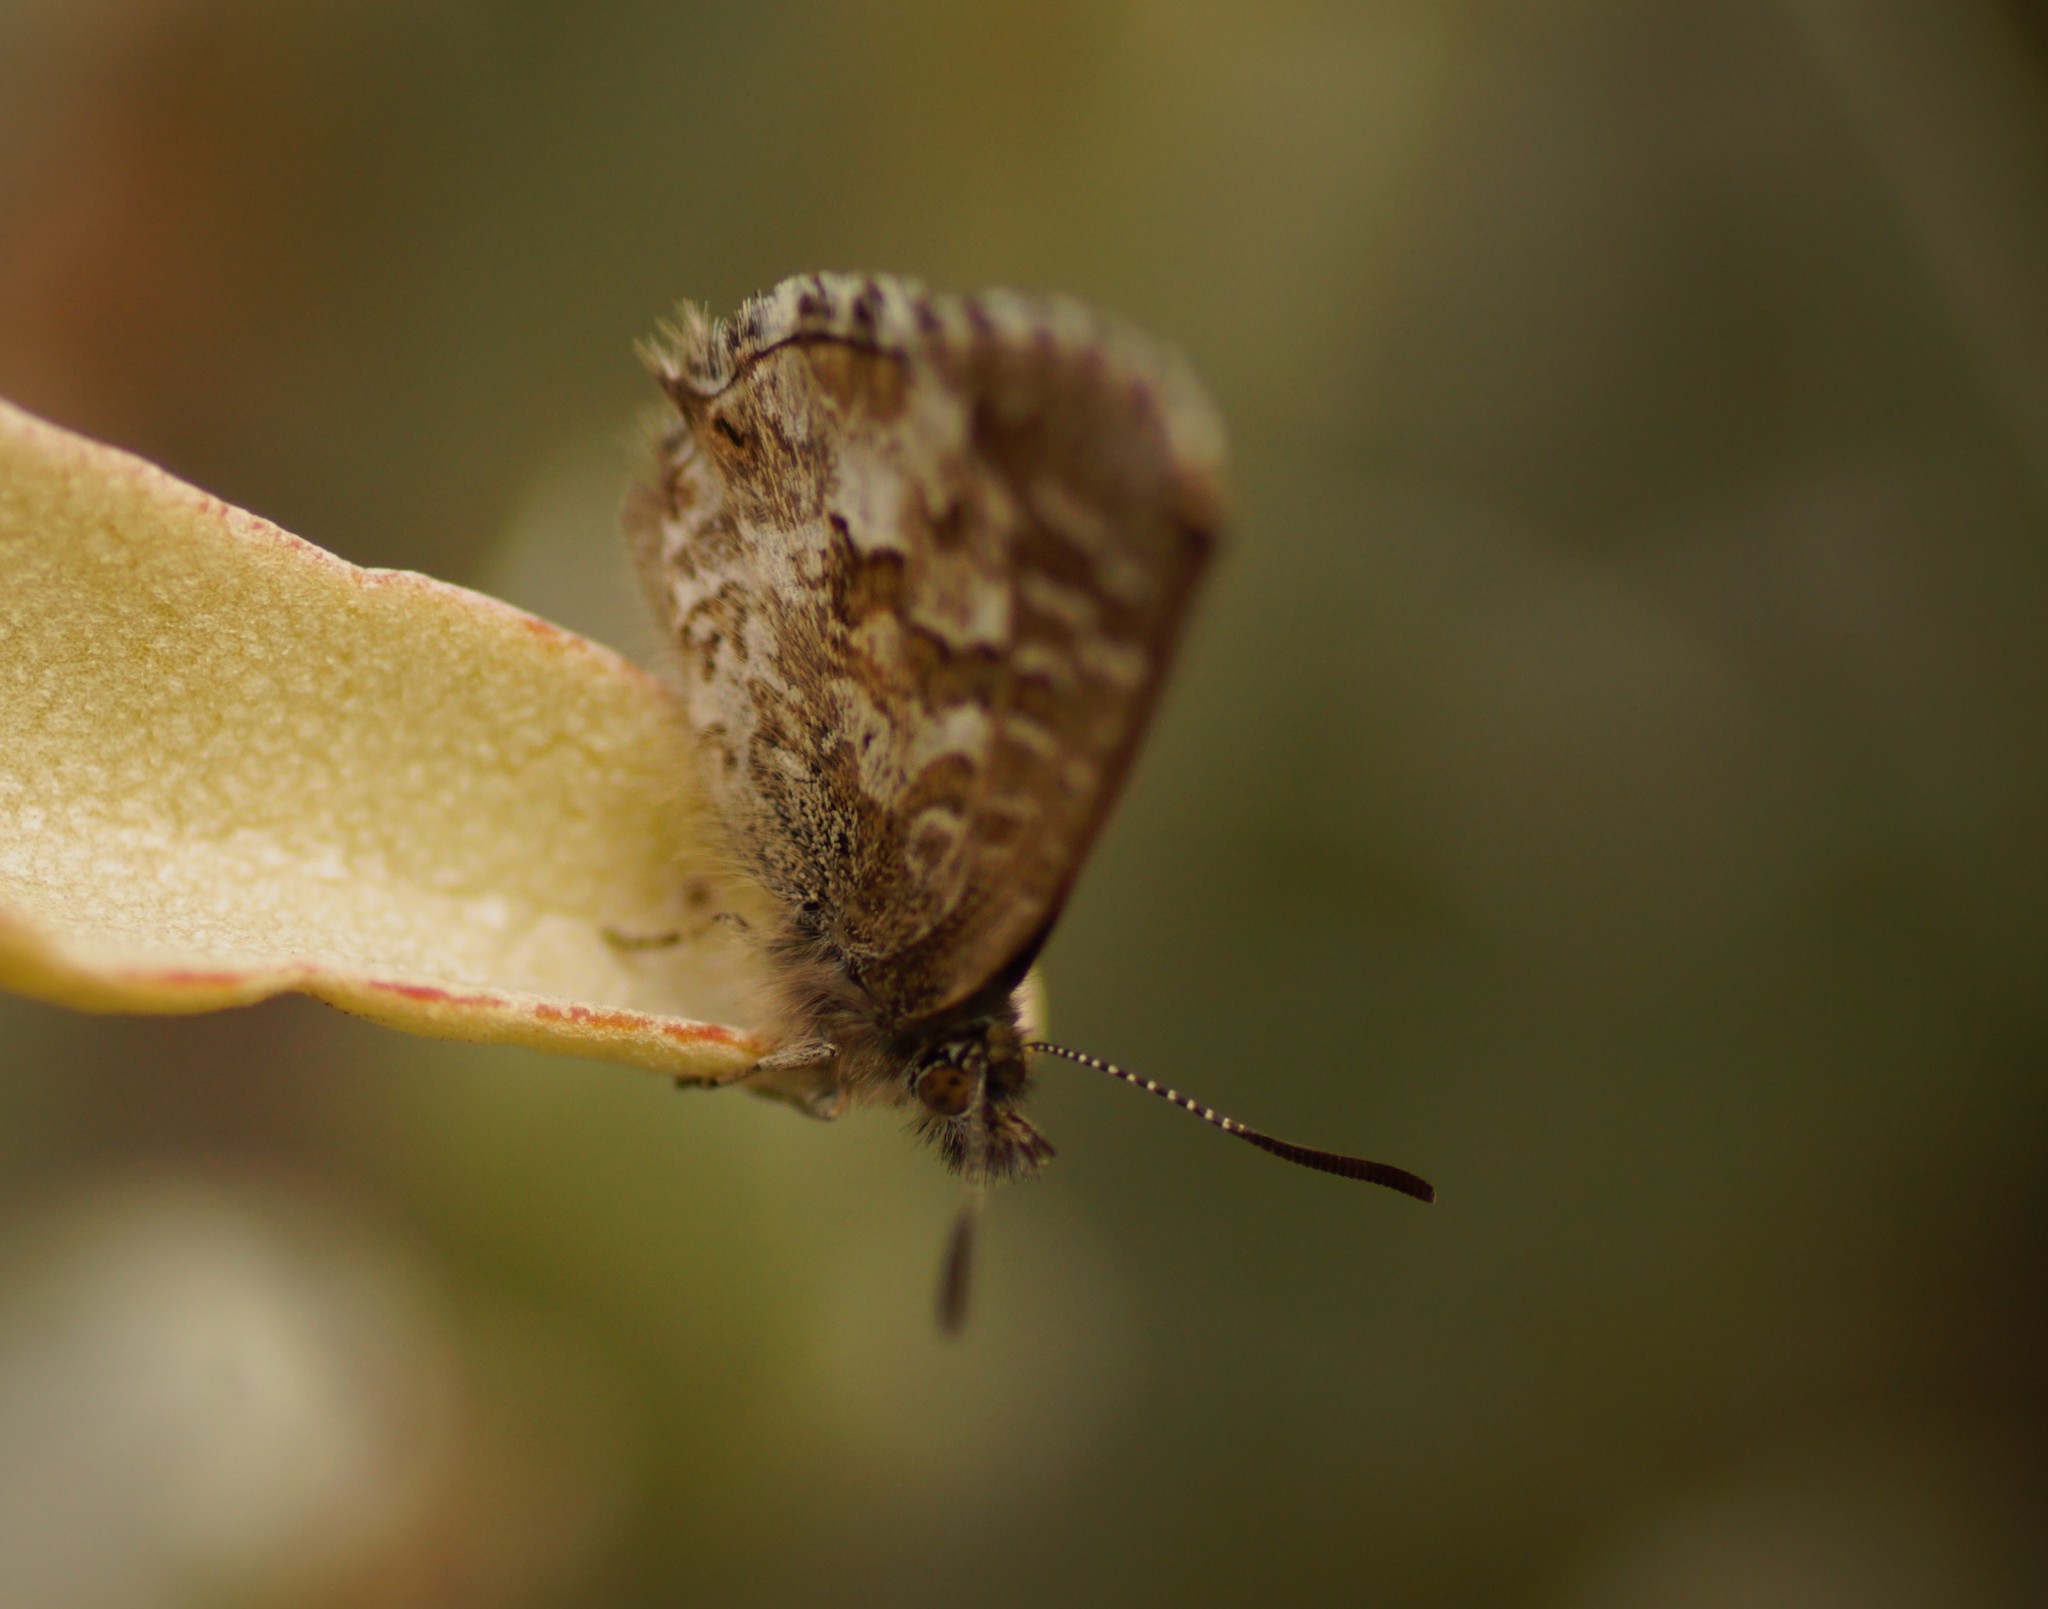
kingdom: Animalia
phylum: Arthropoda
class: Insecta
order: Lepidoptera
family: Lycaenidae
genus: Theclinesthes
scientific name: Theclinesthes serpentata
